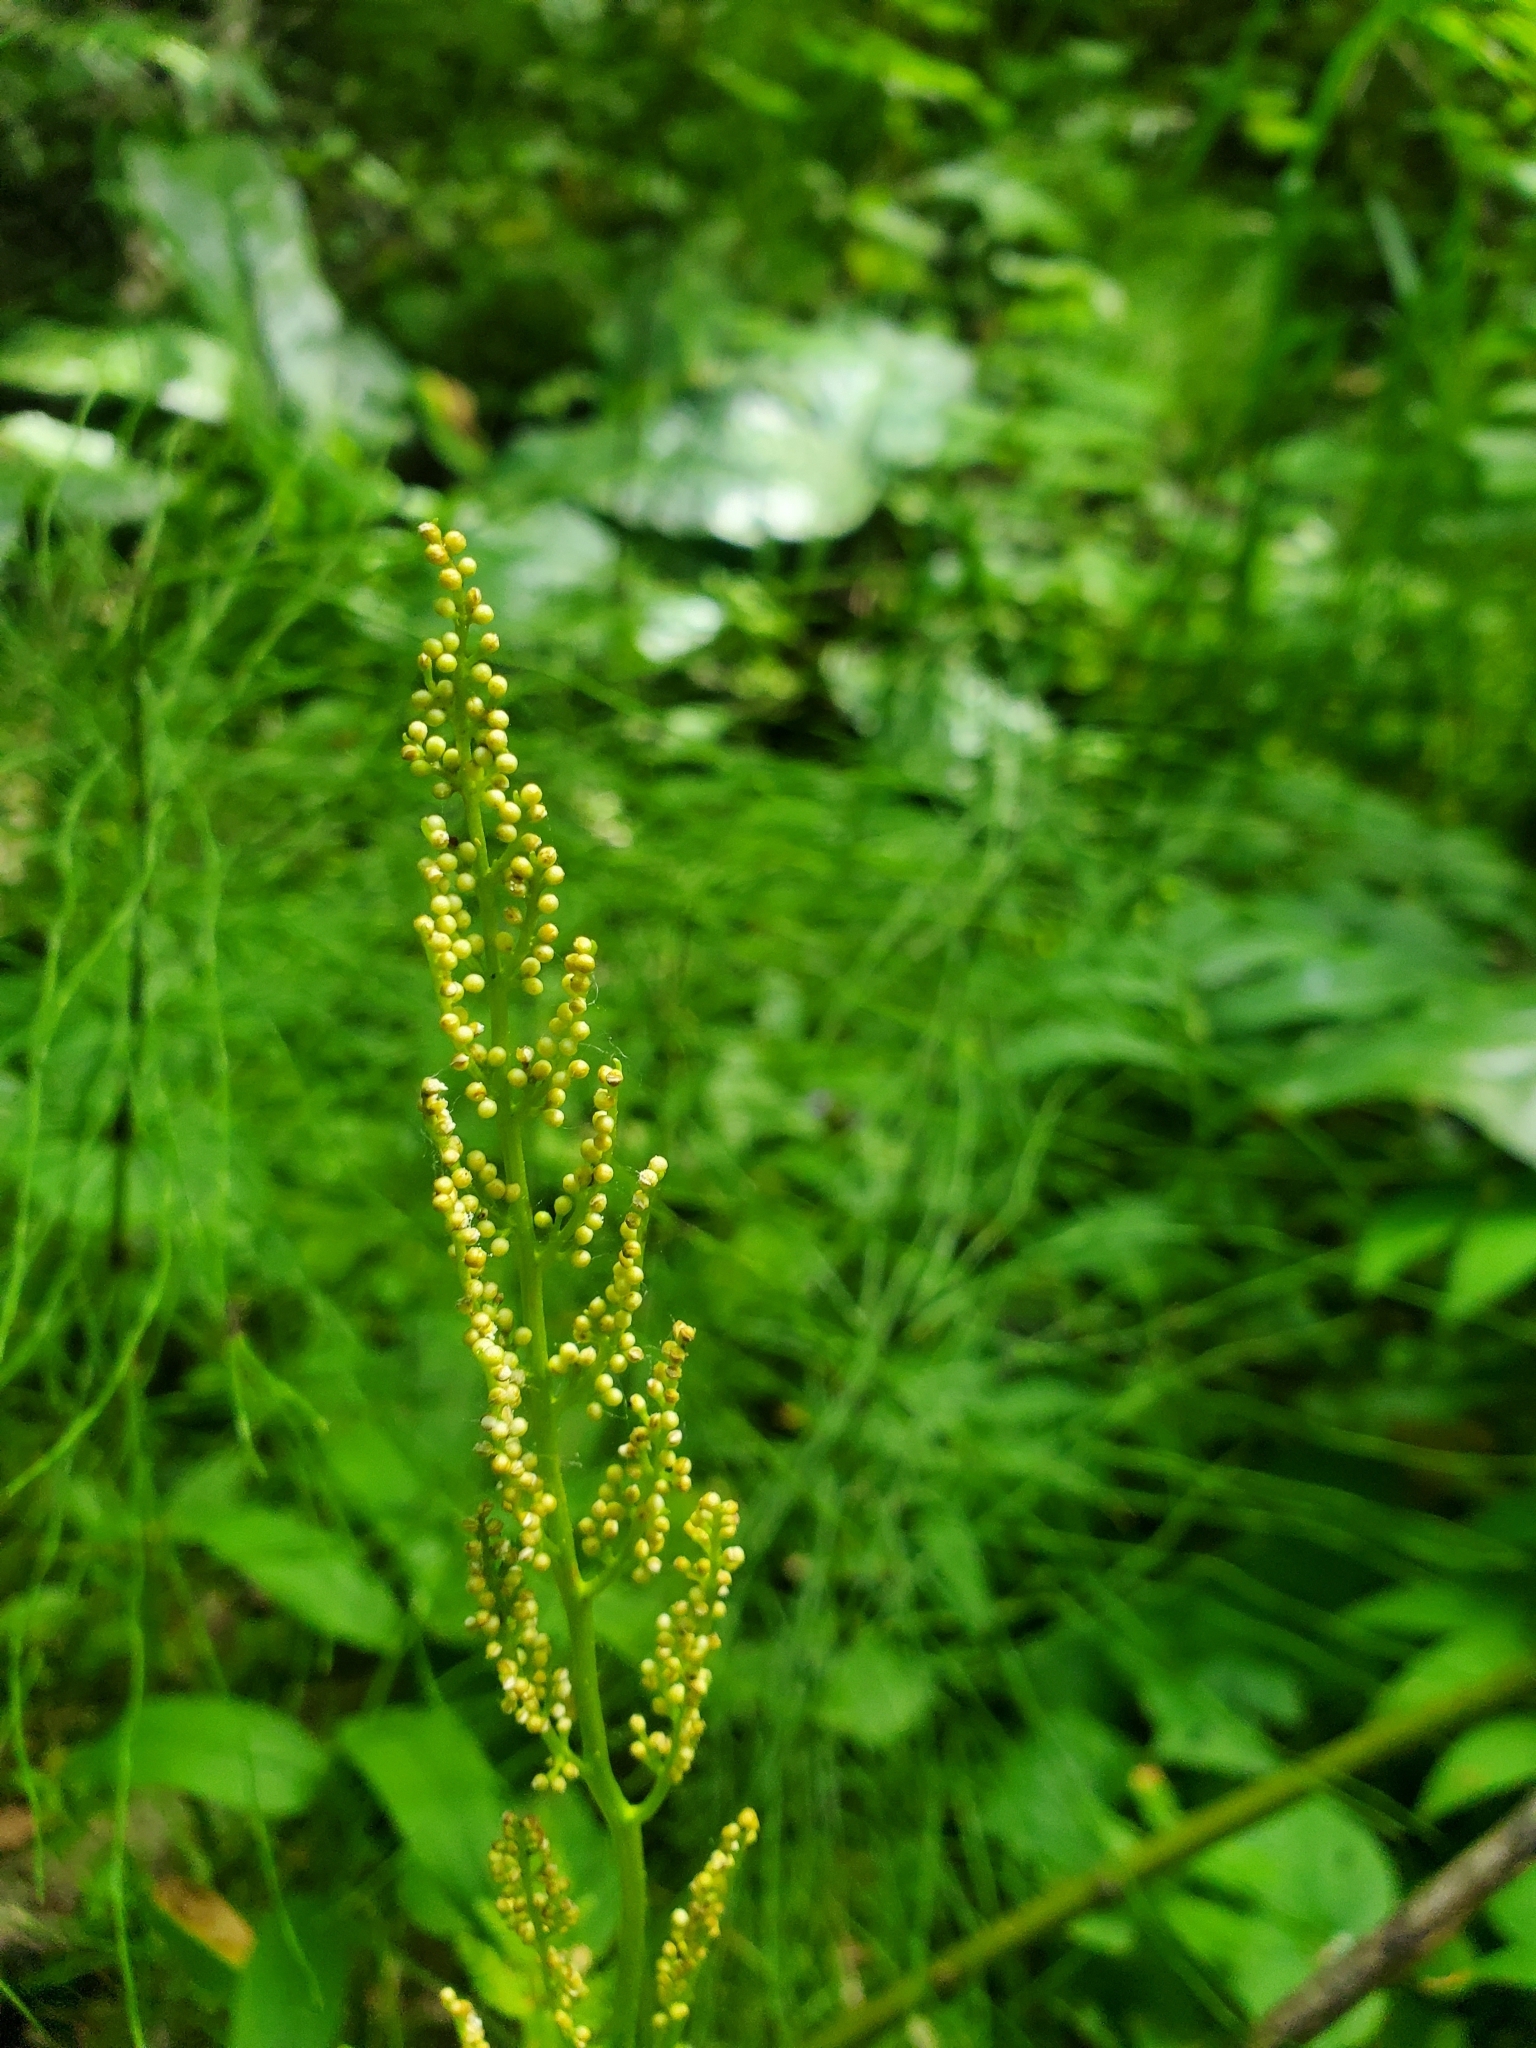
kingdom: Plantae
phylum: Tracheophyta
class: Polypodiopsida
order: Ophioglossales
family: Ophioglossaceae
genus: Botrypus
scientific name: Botrypus virginianus
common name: Common grapefern
